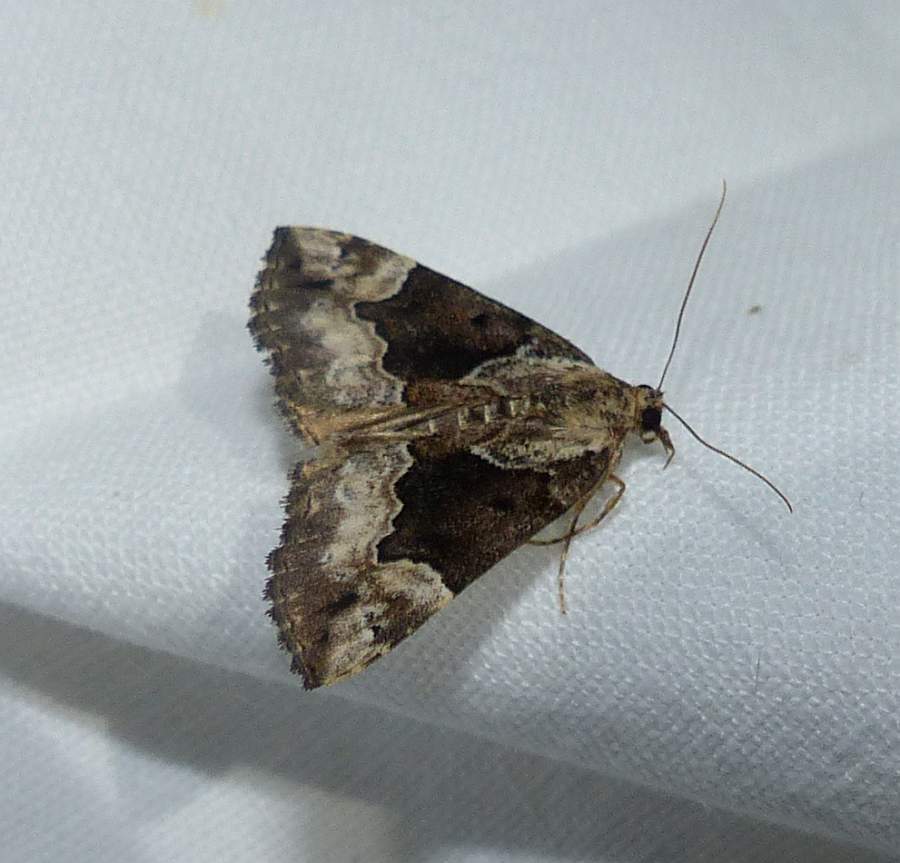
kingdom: Animalia
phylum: Arthropoda
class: Insecta
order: Lepidoptera
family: Erebidae
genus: Hypena
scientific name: Hypena baltimoralis
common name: Baltimore snout
